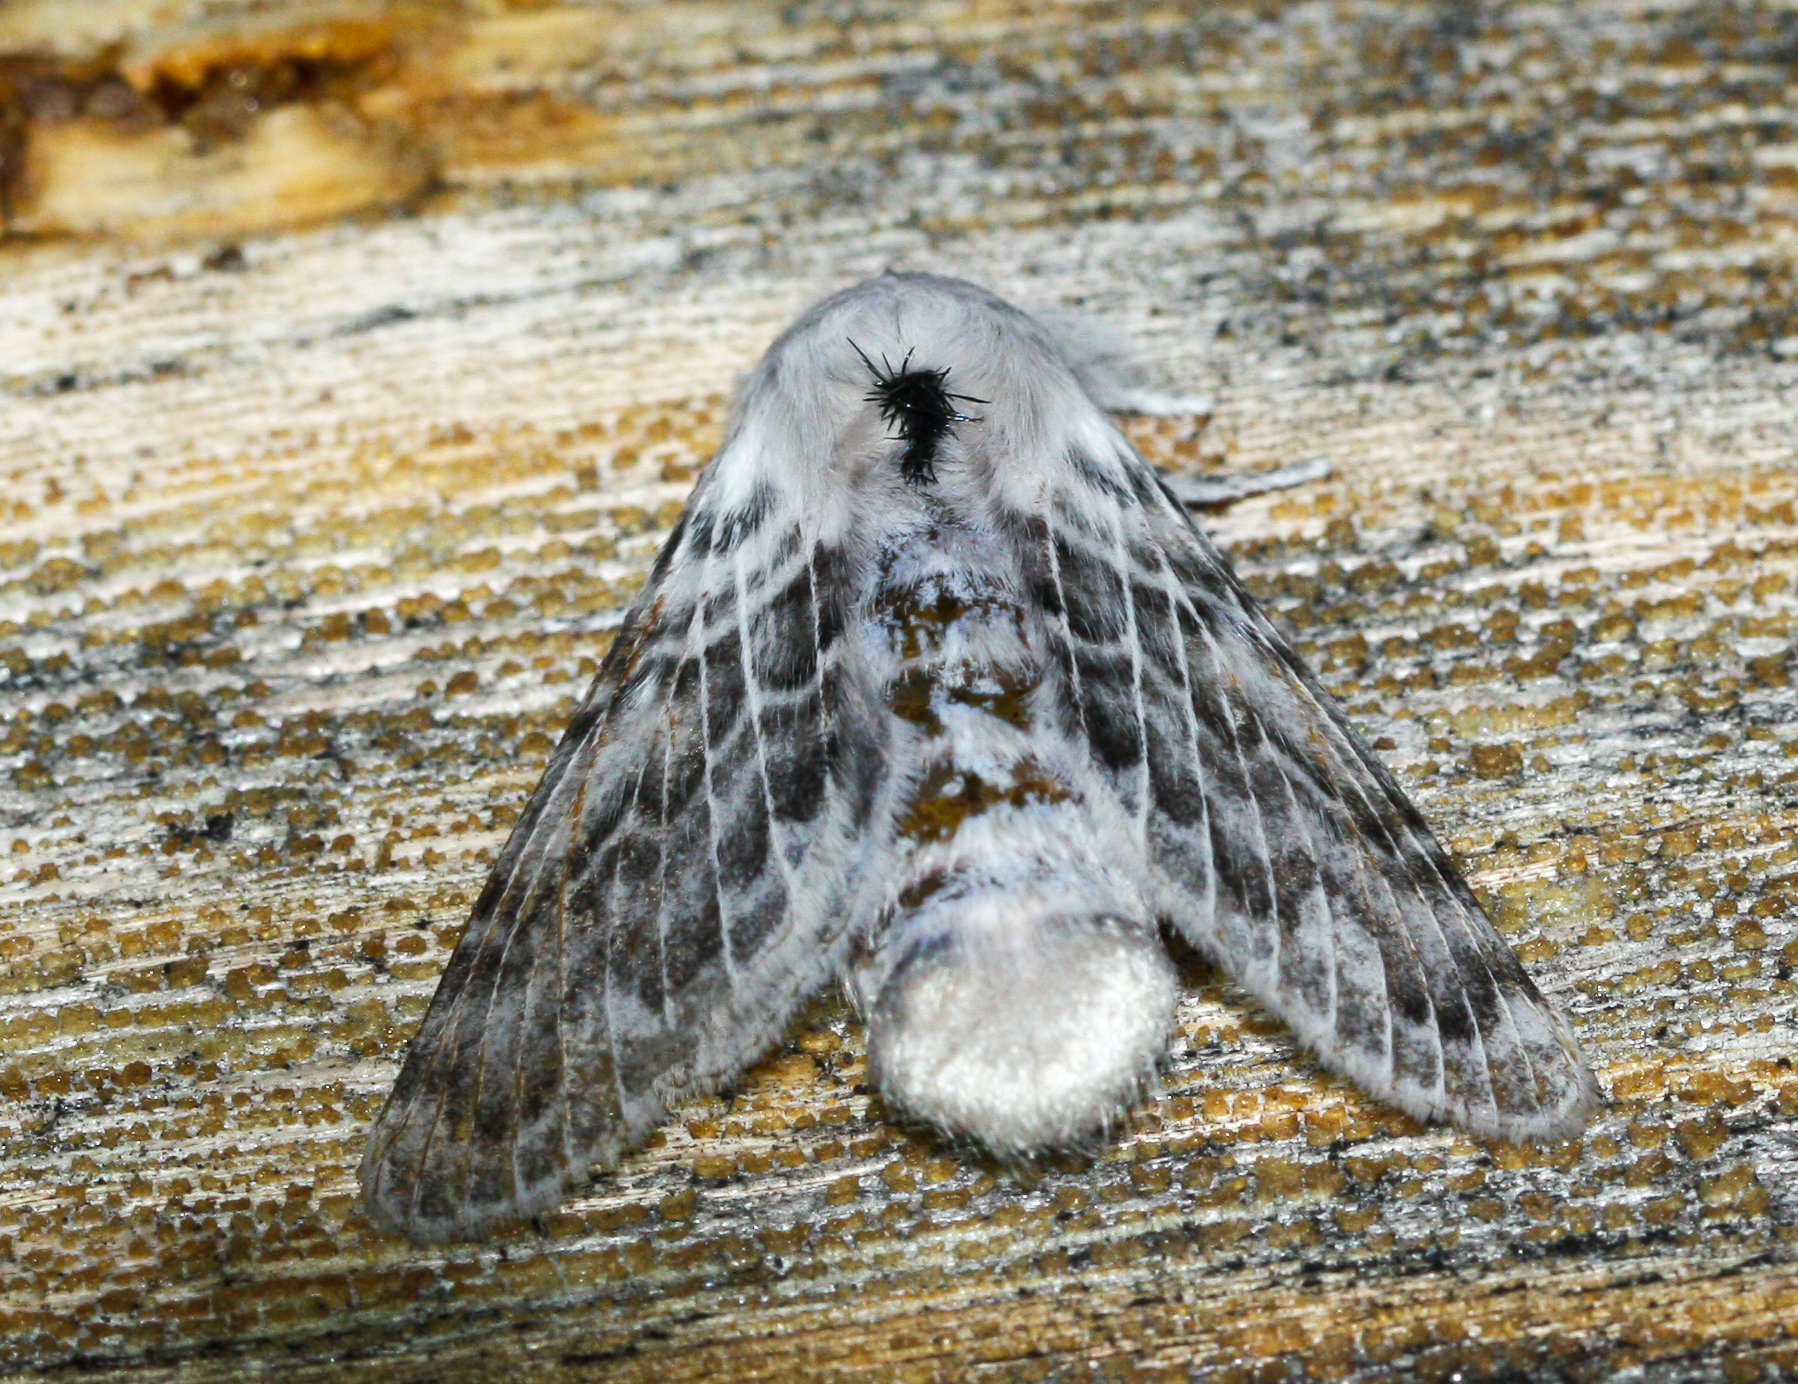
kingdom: Animalia
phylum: Arthropoda
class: Insecta
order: Lepidoptera
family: Lasiocampidae
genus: Apotolype
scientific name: Apotolype brevicrista
